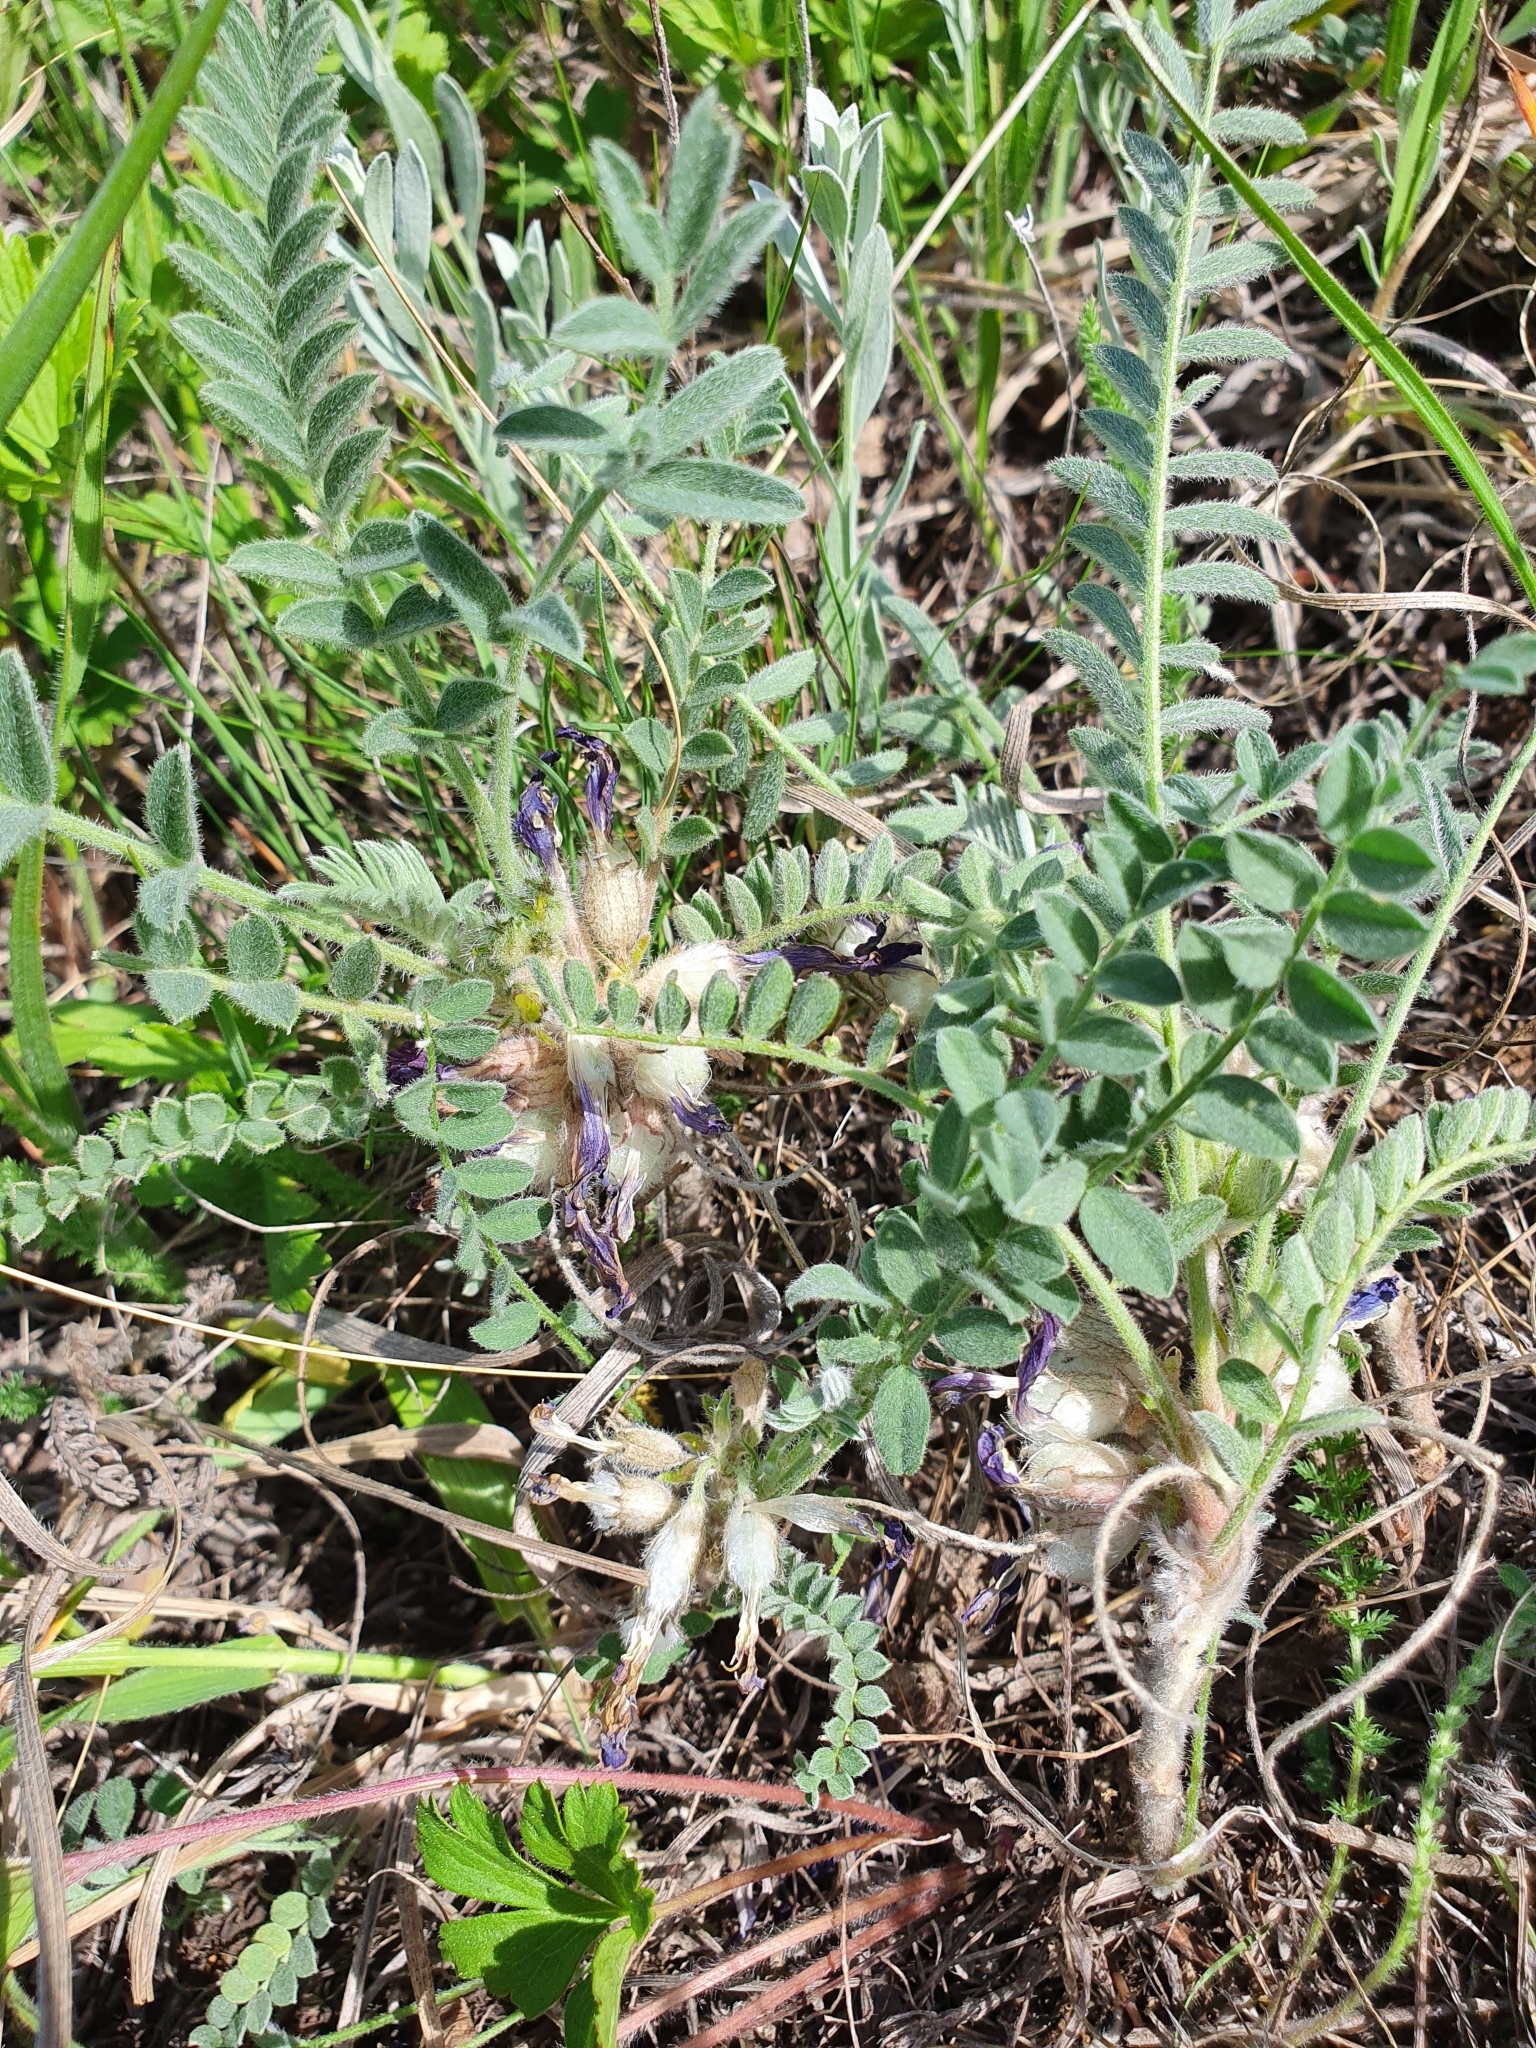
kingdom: Plantae
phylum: Tracheophyta
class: Magnoliopsida
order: Fabales
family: Fabaceae
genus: Astragalus
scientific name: Astragalus testiculatus
